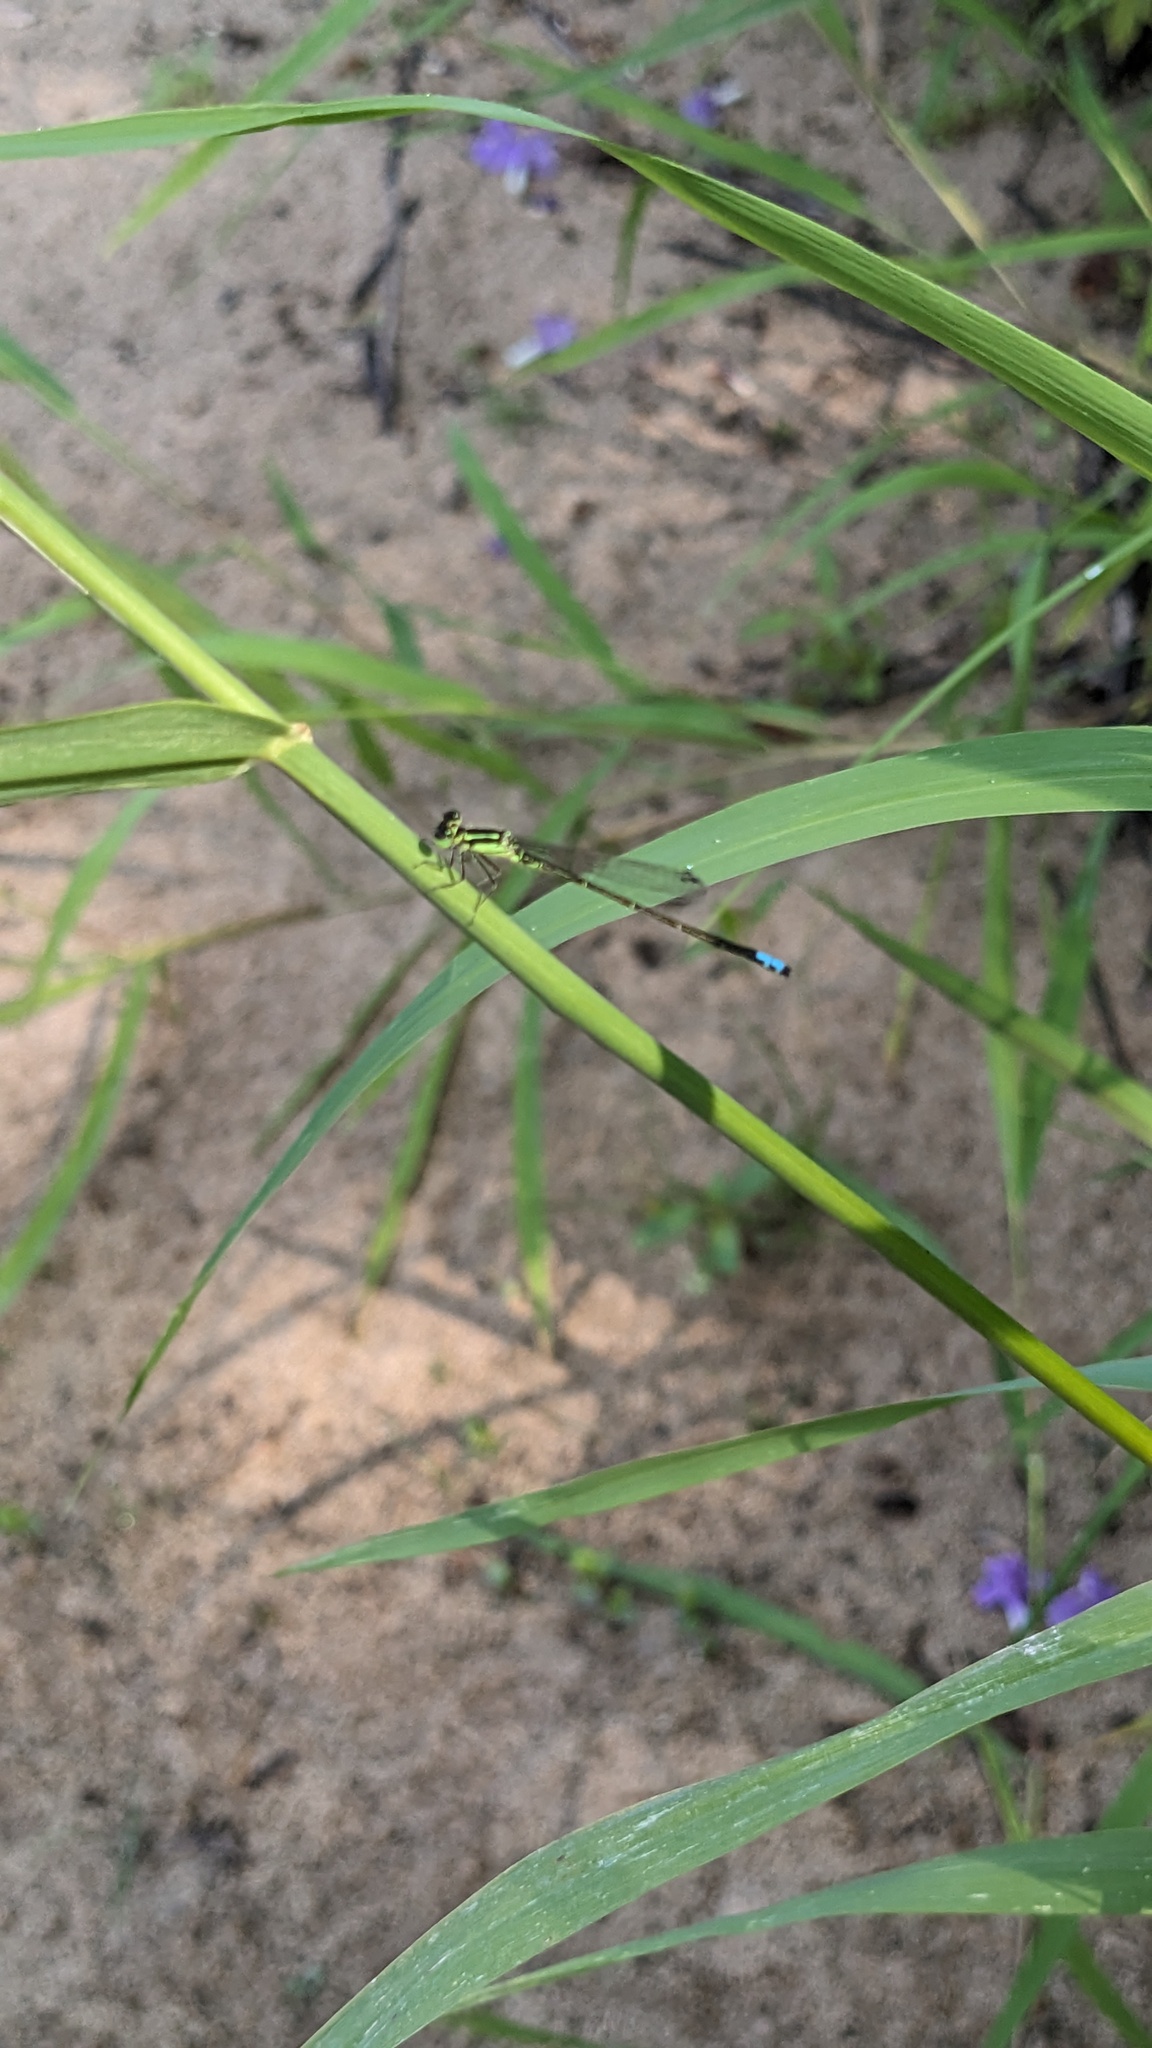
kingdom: Animalia
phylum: Arthropoda
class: Insecta
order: Odonata
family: Coenagrionidae
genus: Ischnura
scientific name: Ischnura verticalis
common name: Eastern forktail
